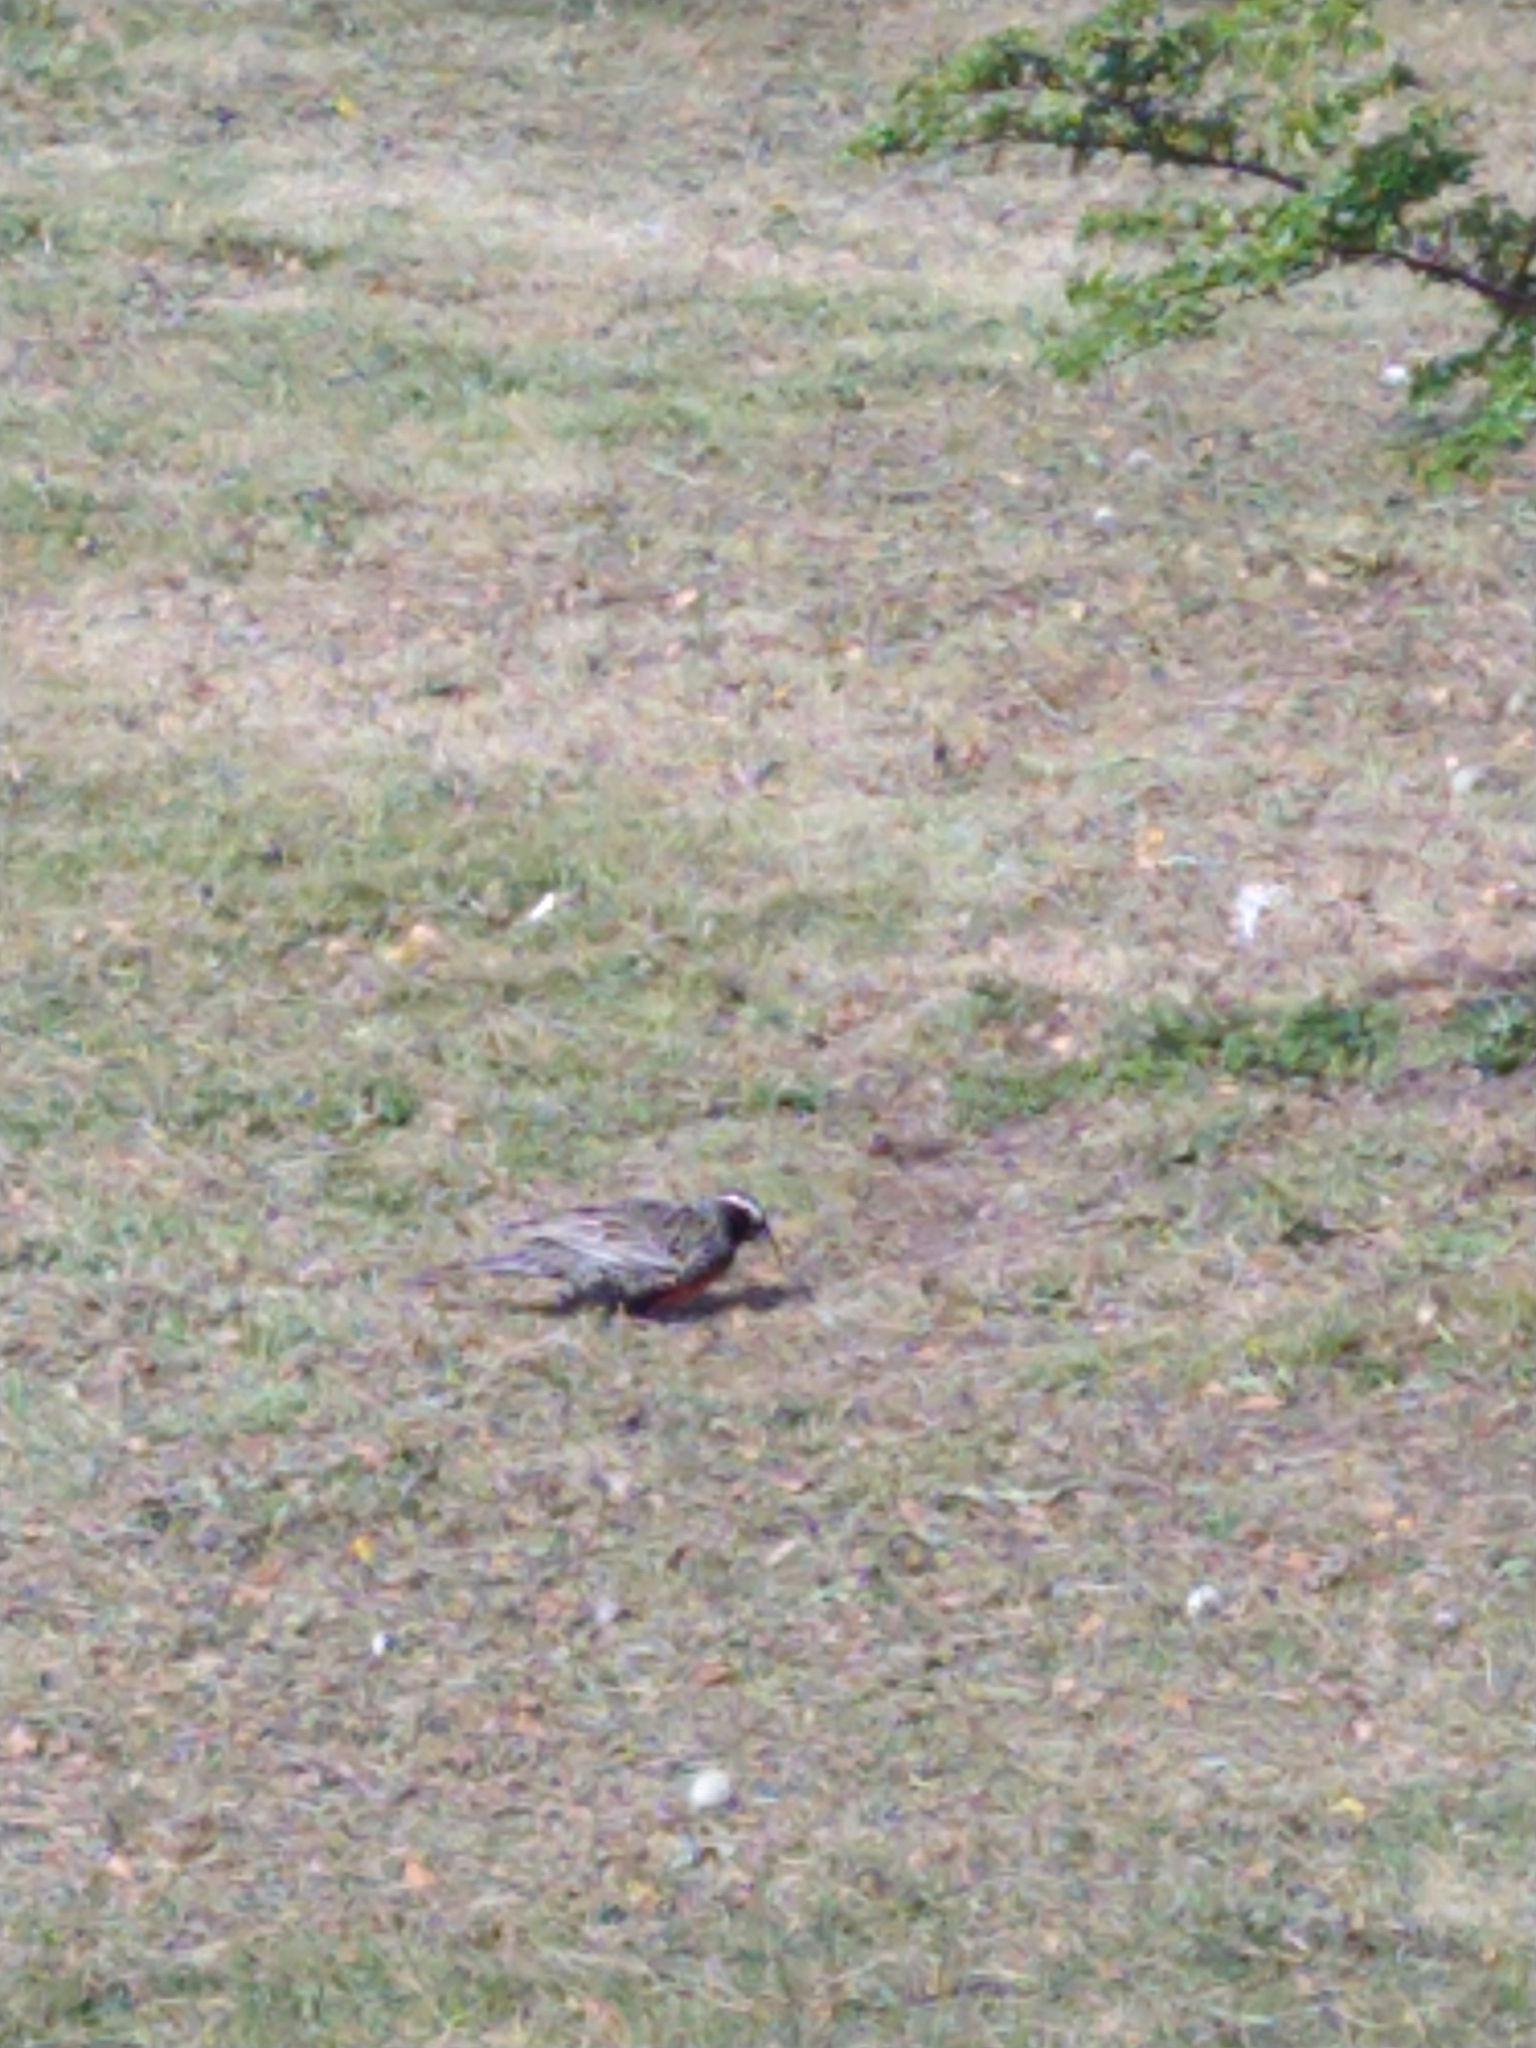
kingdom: Animalia
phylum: Chordata
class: Aves
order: Passeriformes
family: Icteridae
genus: Sturnella
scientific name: Sturnella loyca
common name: Long-tailed meadowlark
